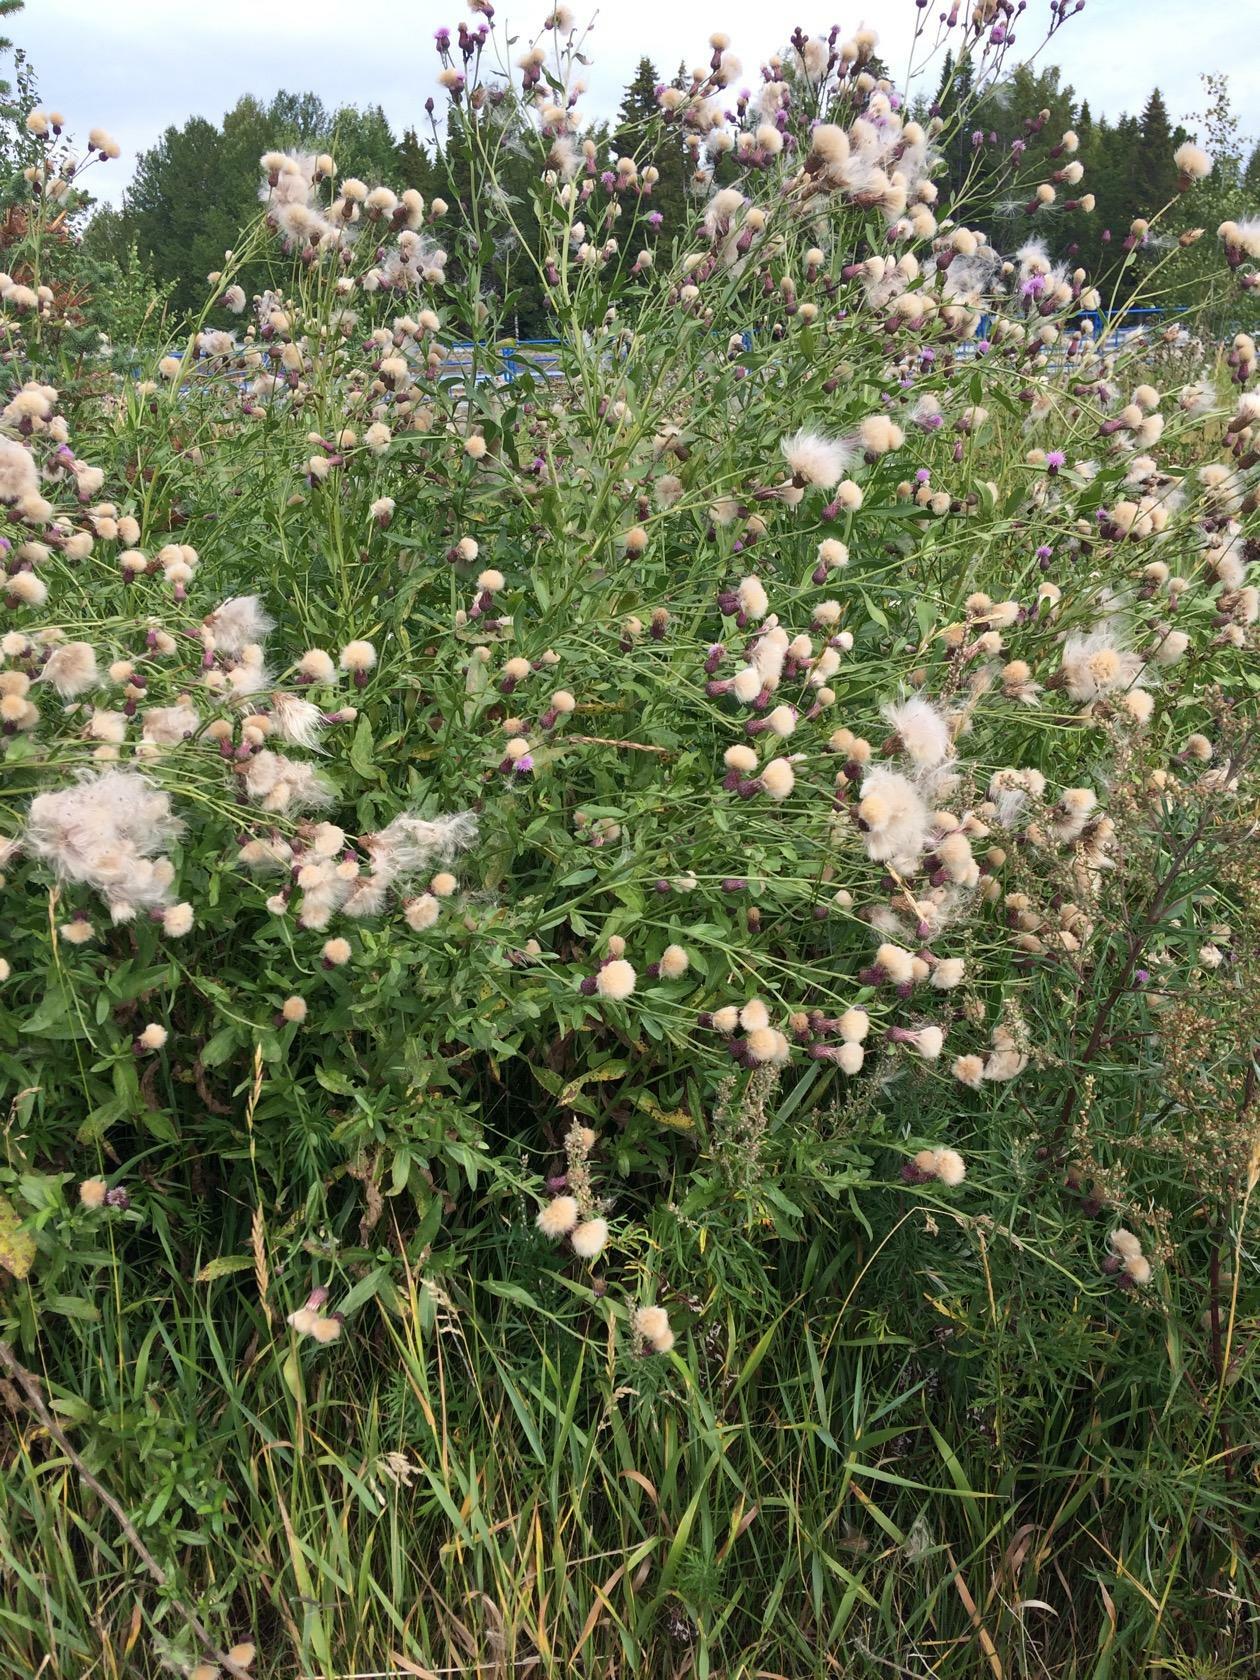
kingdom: Plantae
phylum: Tracheophyta
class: Magnoliopsida
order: Asterales
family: Asteraceae
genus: Cirsium
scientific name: Cirsium arvense
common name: Creeping thistle
